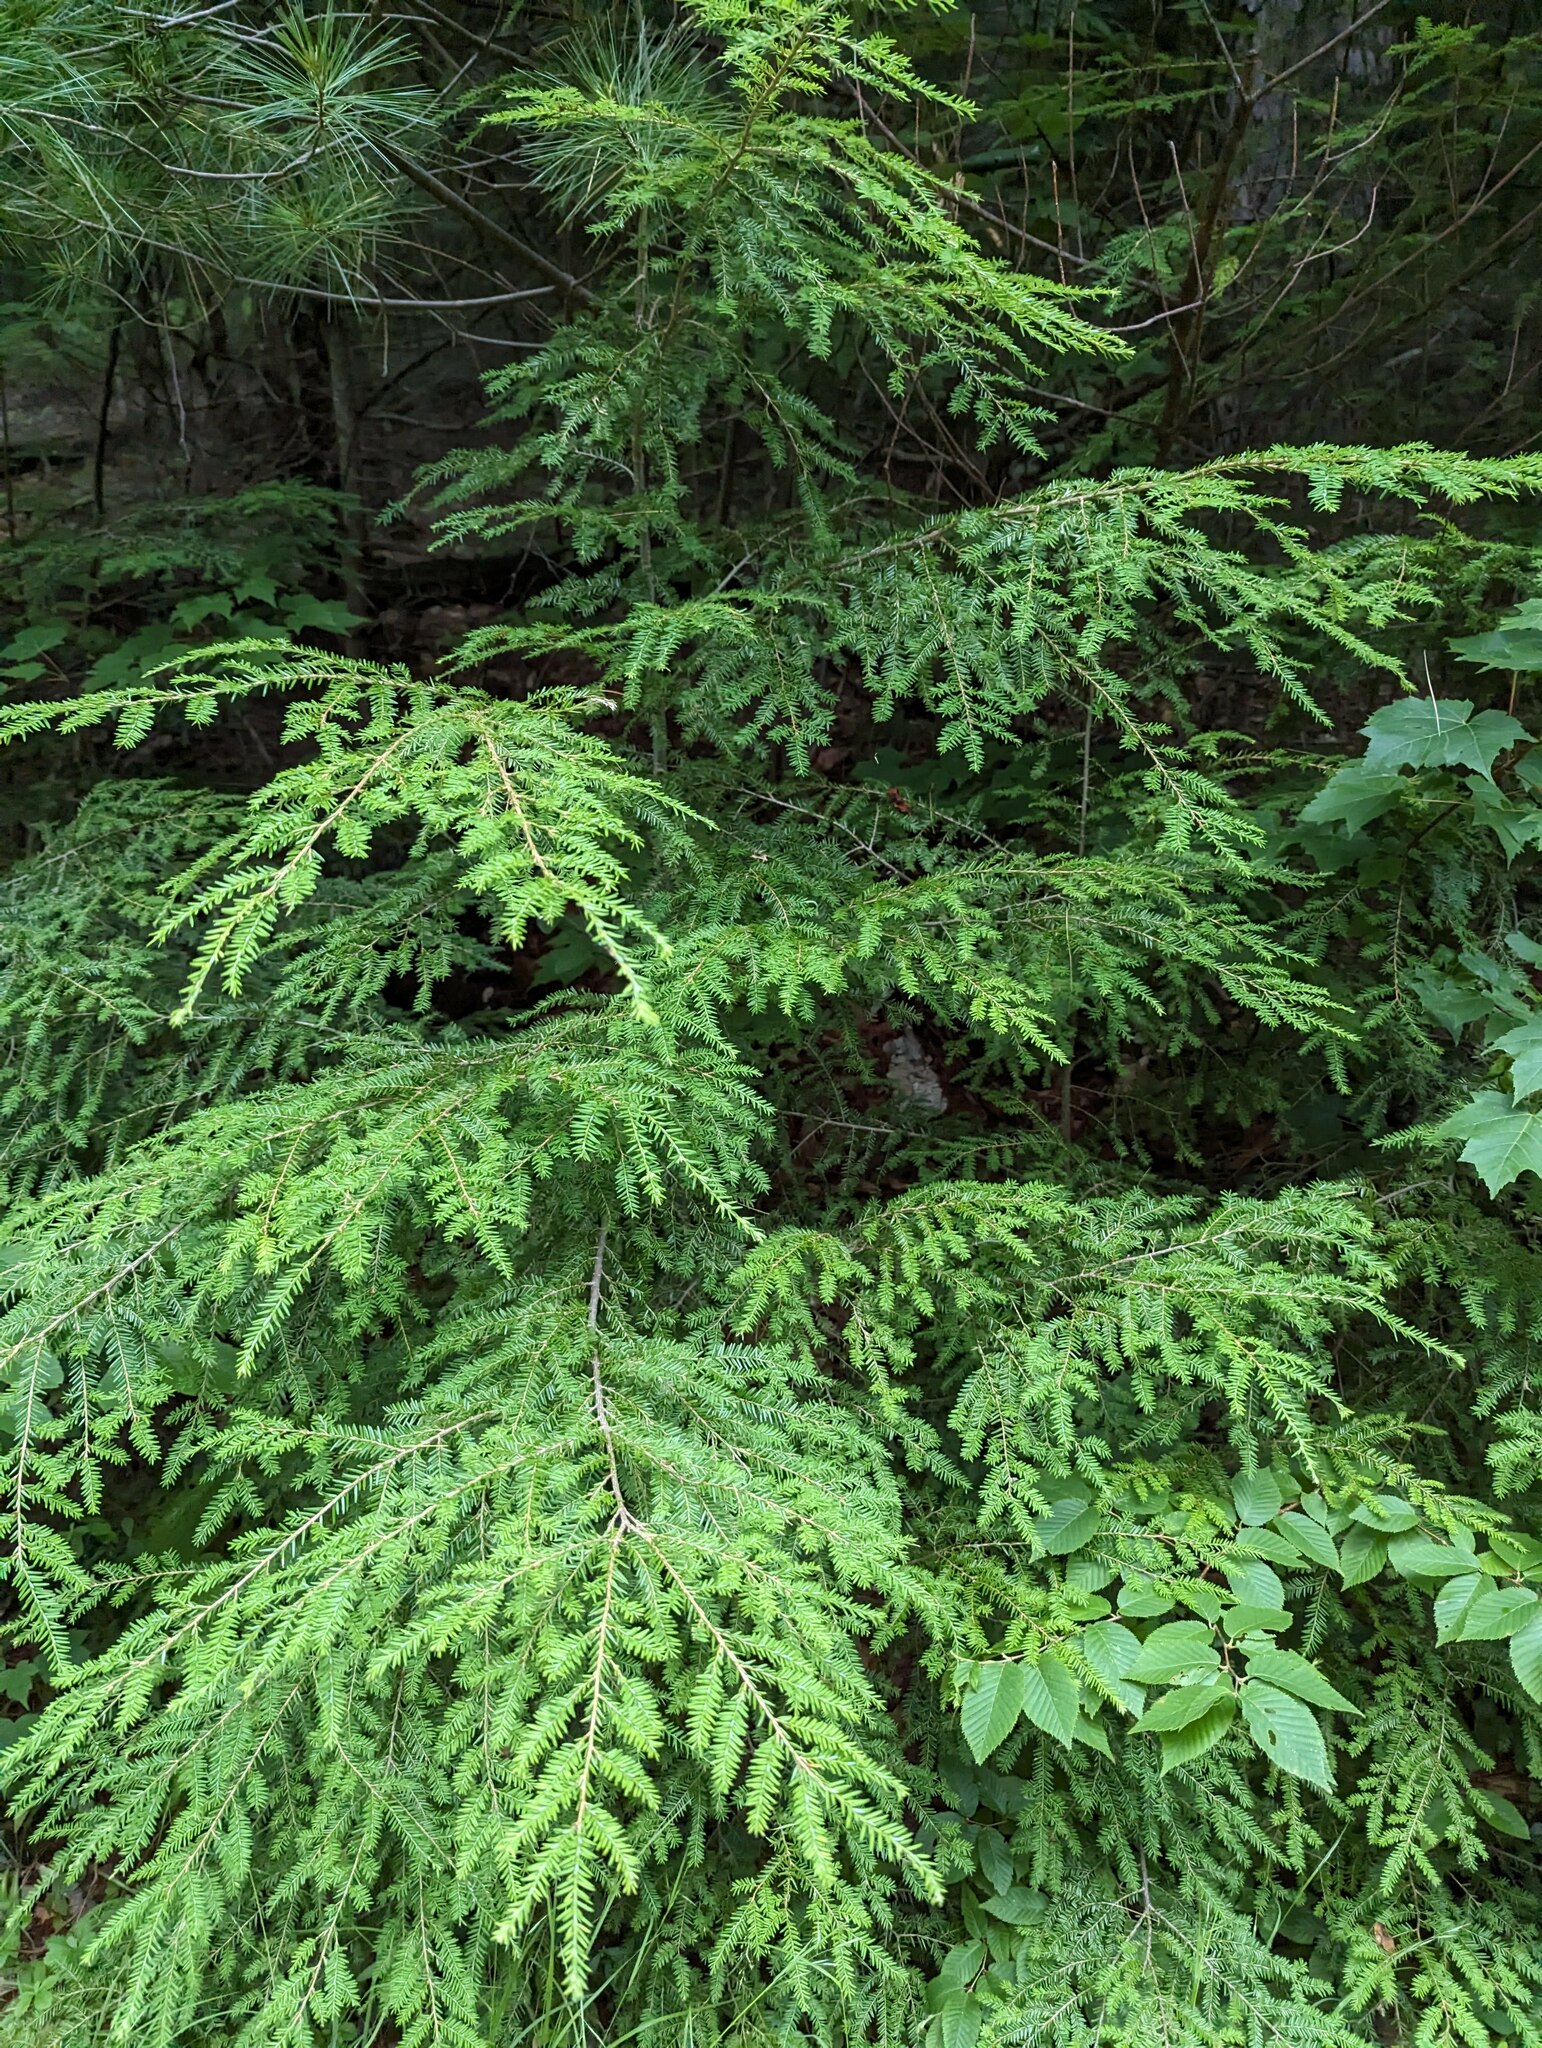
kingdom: Plantae
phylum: Tracheophyta
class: Pinopsida
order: Pinales
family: Pinaceae
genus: Tsuga
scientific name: Tsuga canadensis
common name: Eastern hemlock
